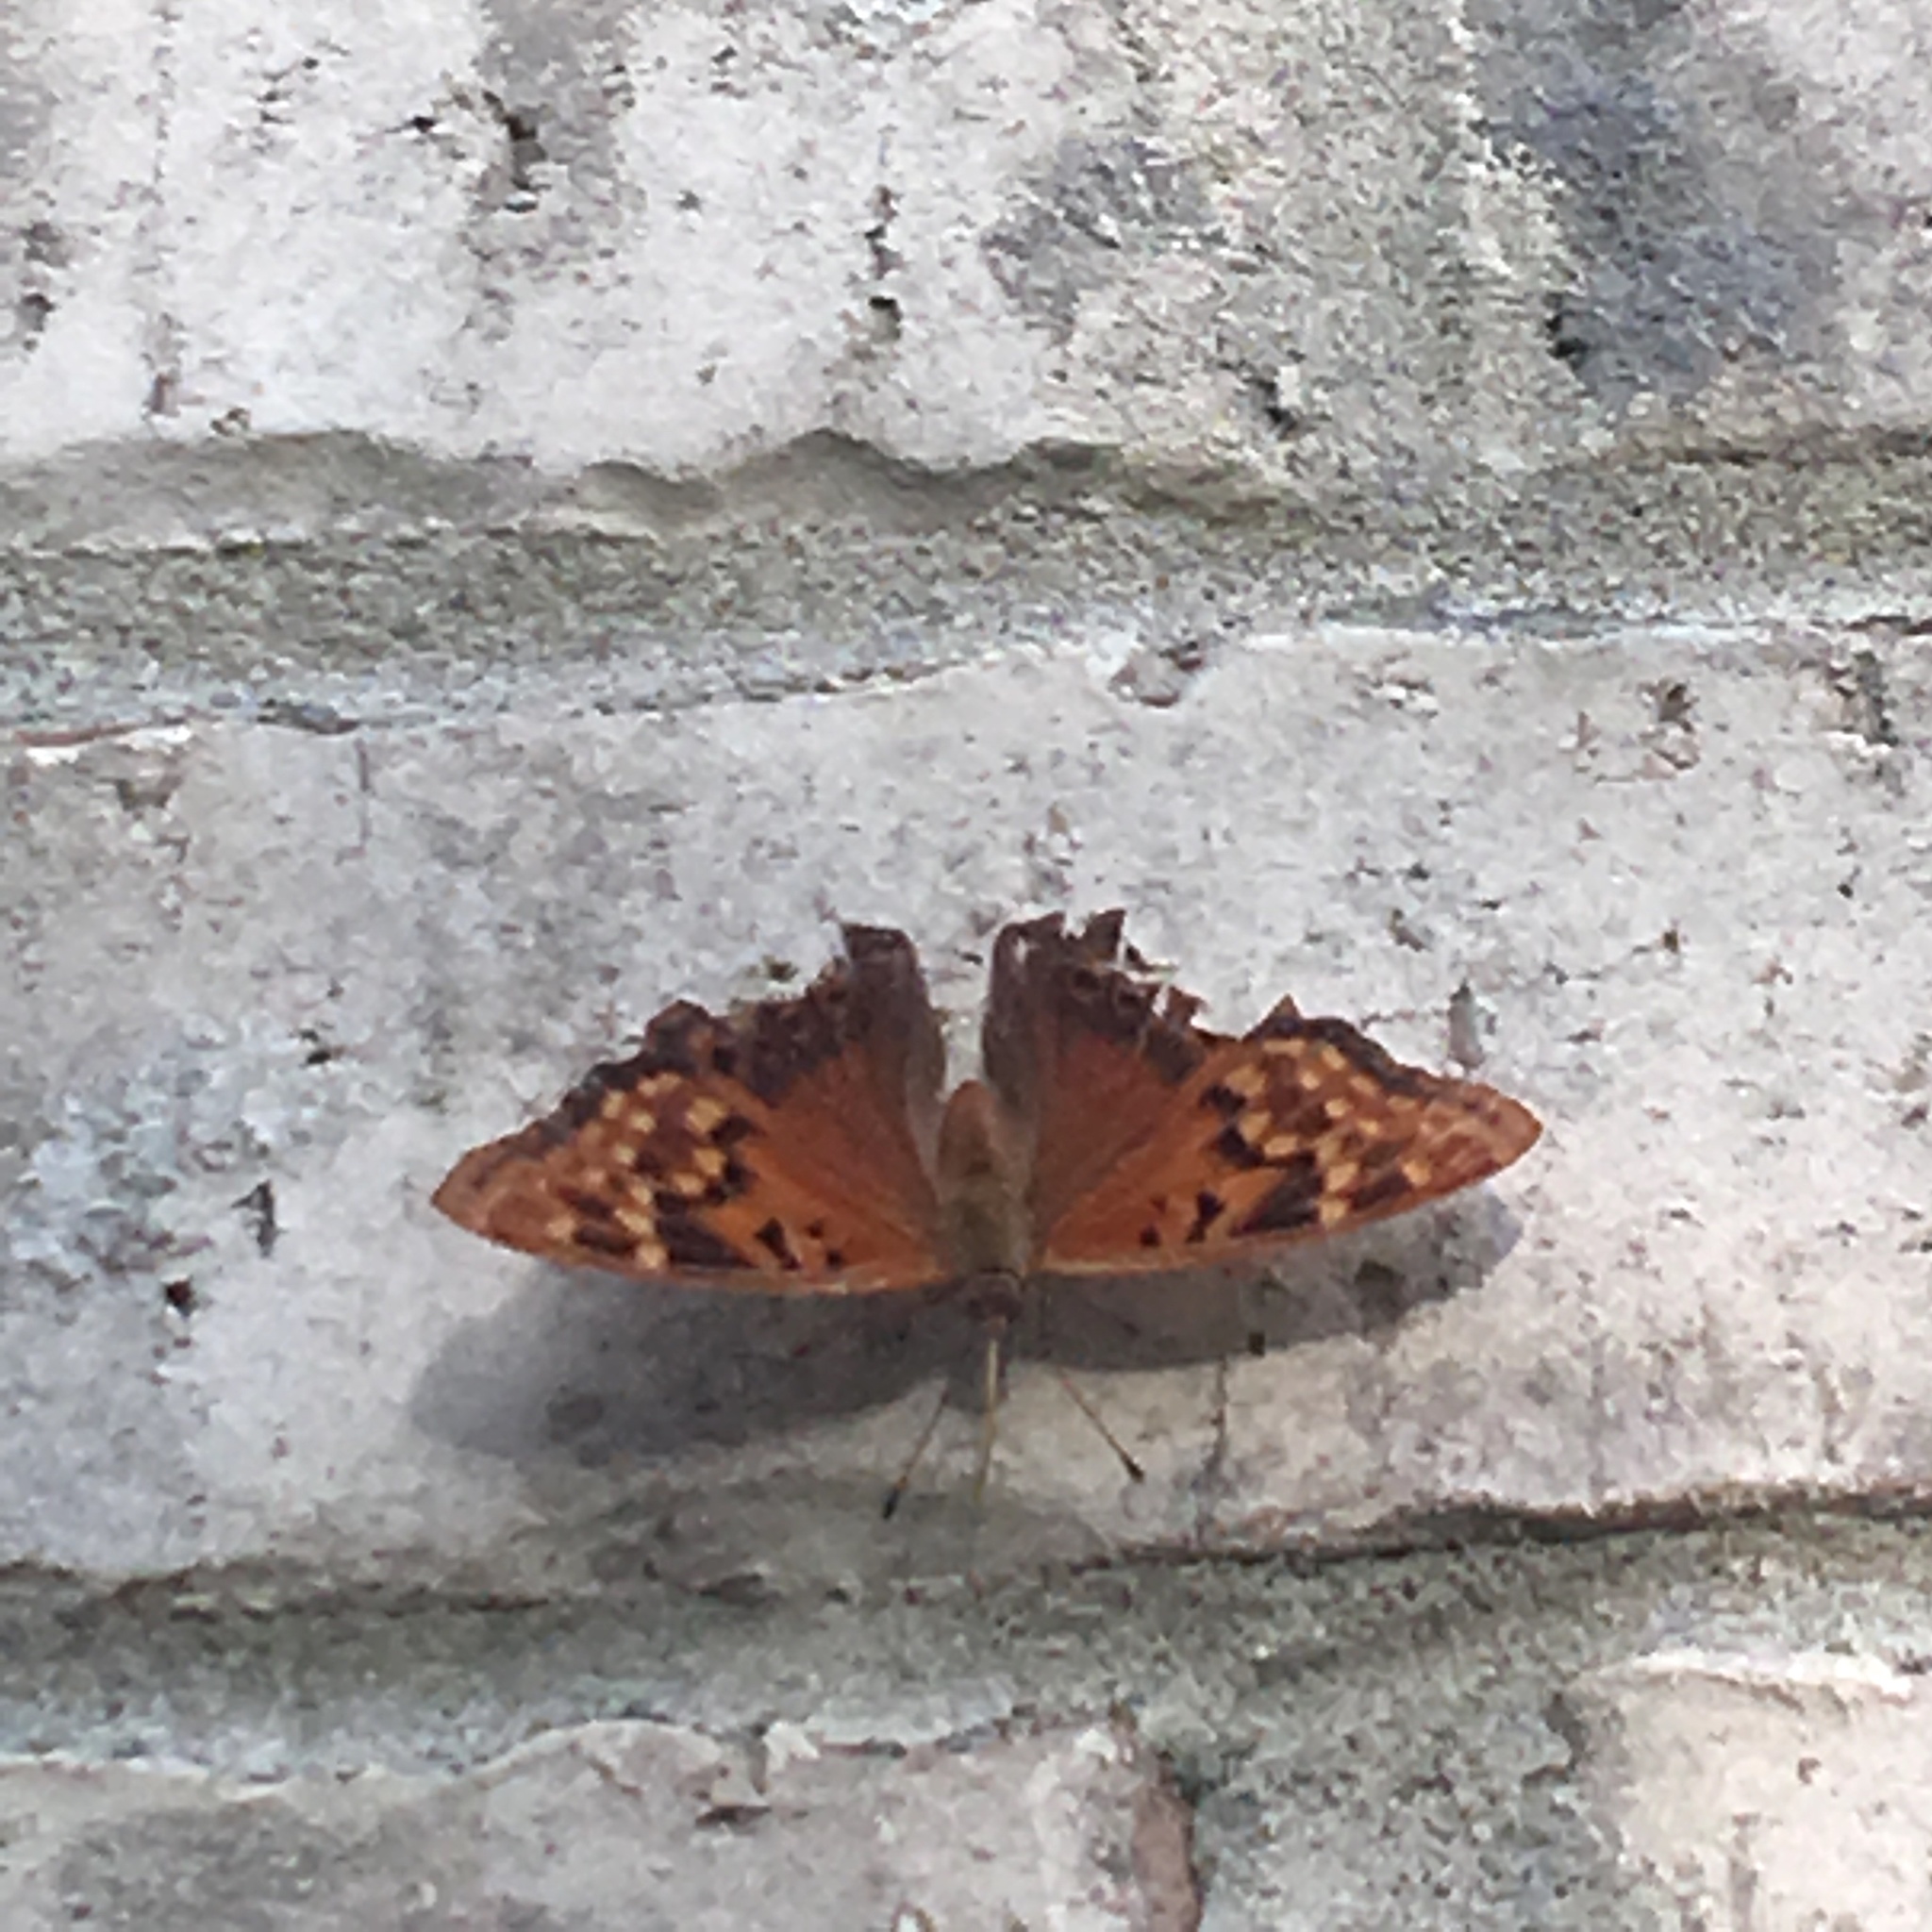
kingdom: Animalia
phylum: Arthropoda
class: Insecta
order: Lepidoptera
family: Nymphalidae
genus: Asterocampa
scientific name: Asterocampa clyton
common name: Tawny emperor
